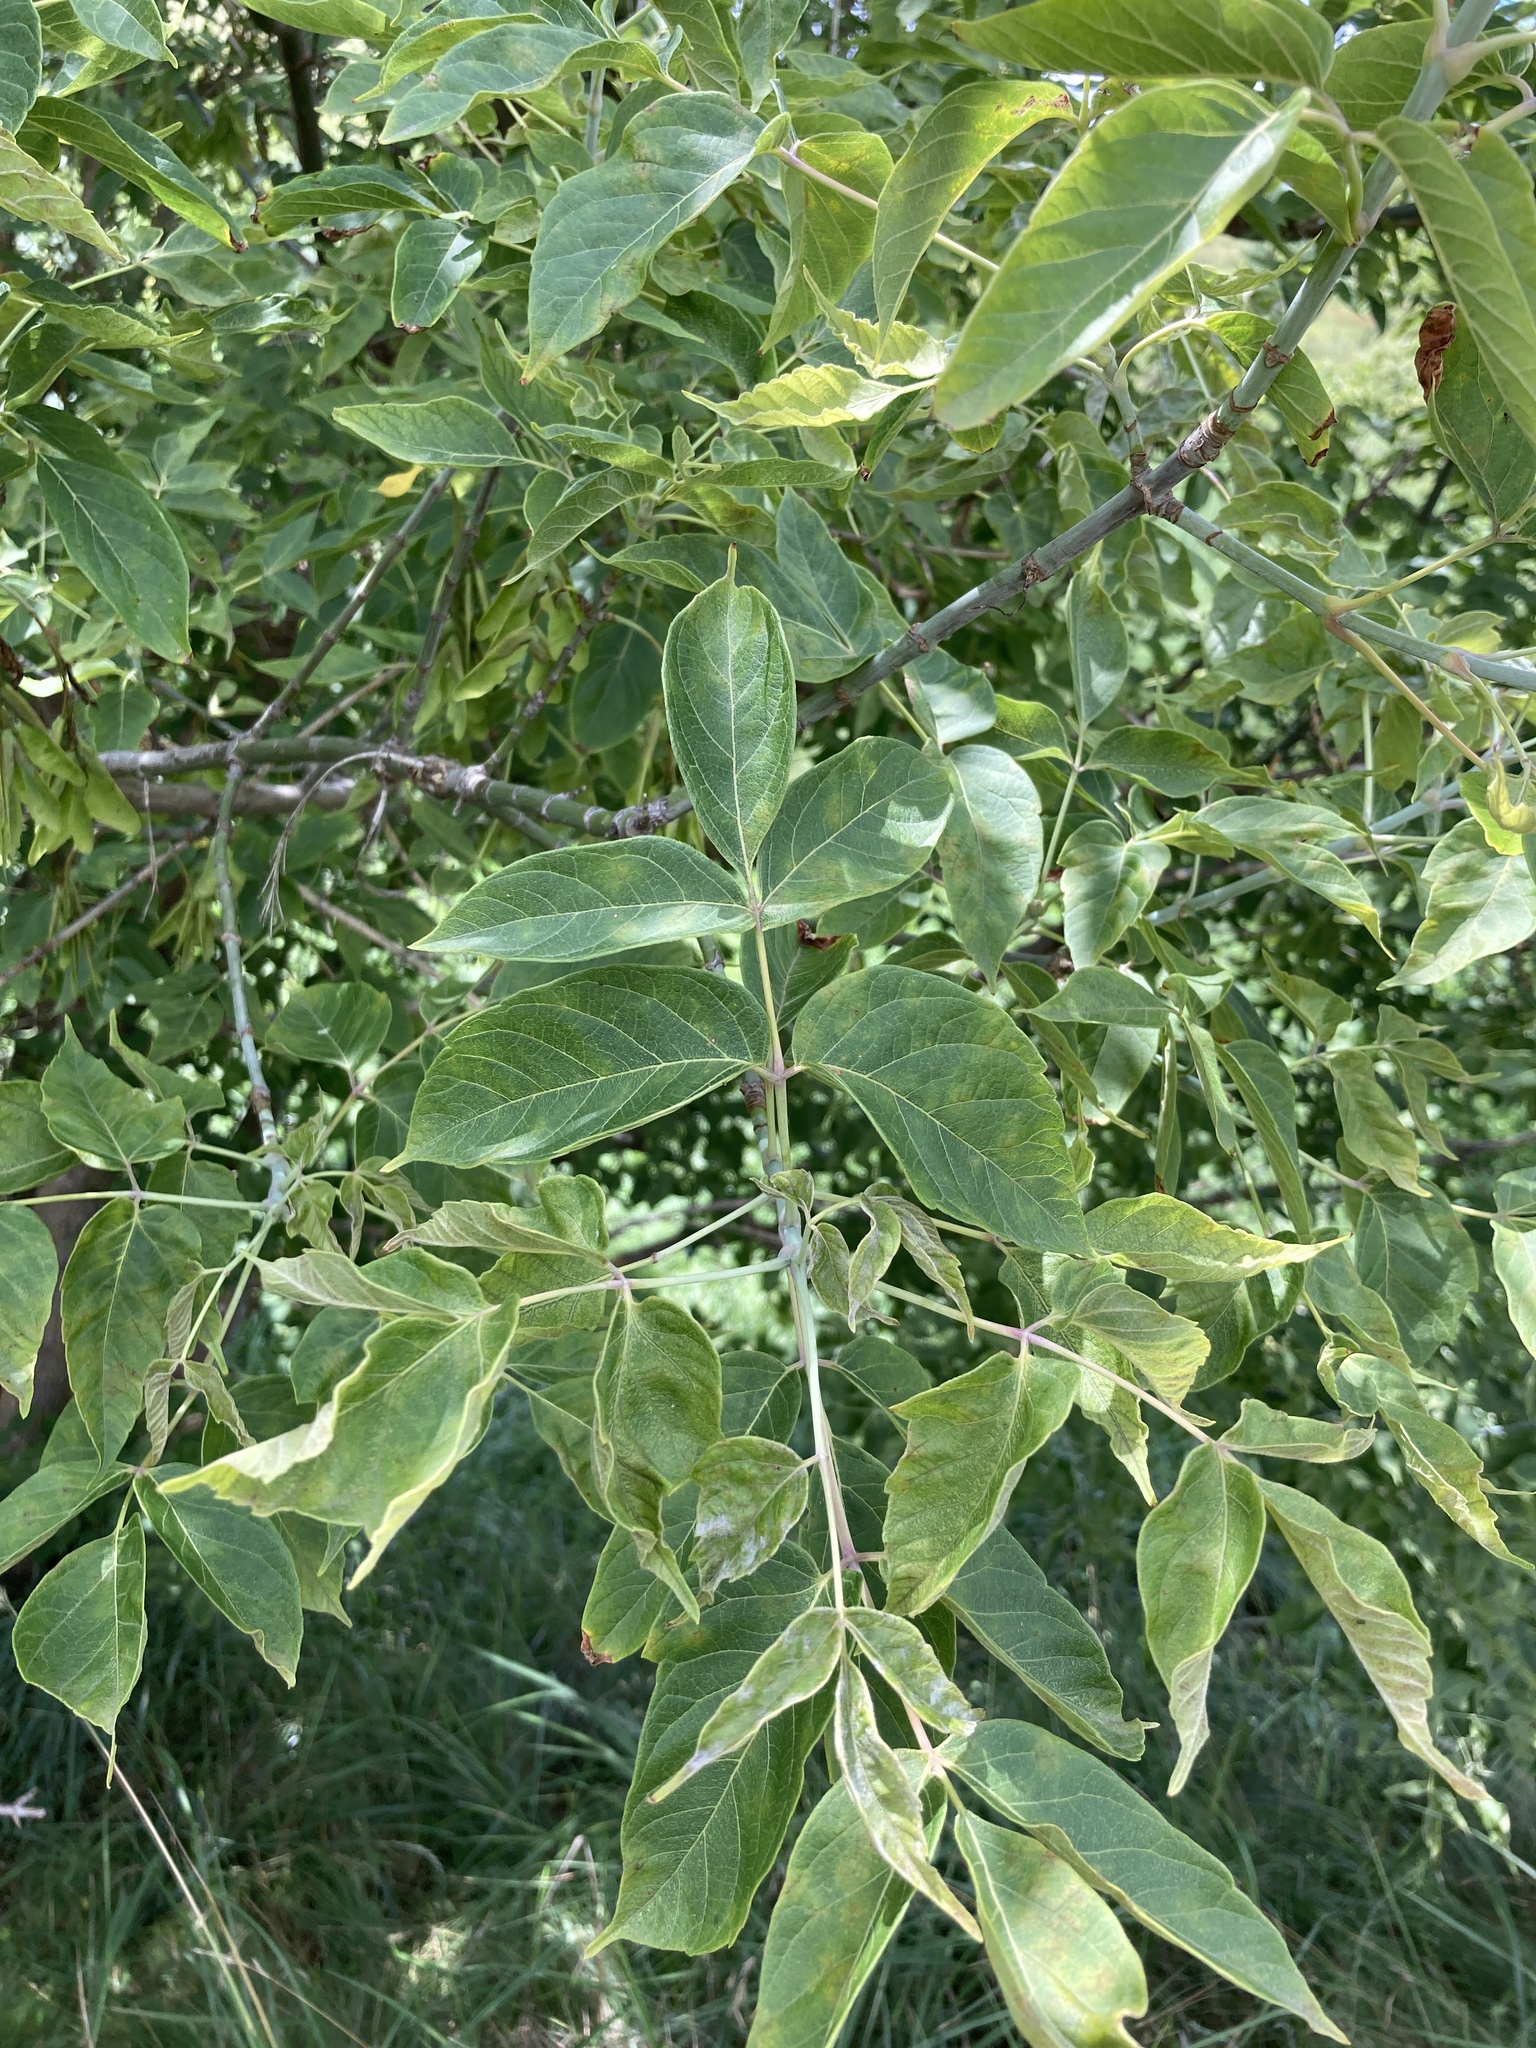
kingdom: Plantae
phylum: Tracheophyta
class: Magnoliopsida
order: Sapindales
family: Sapindaceae
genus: Acer
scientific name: Acer negundo
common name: Ashleaf maple
